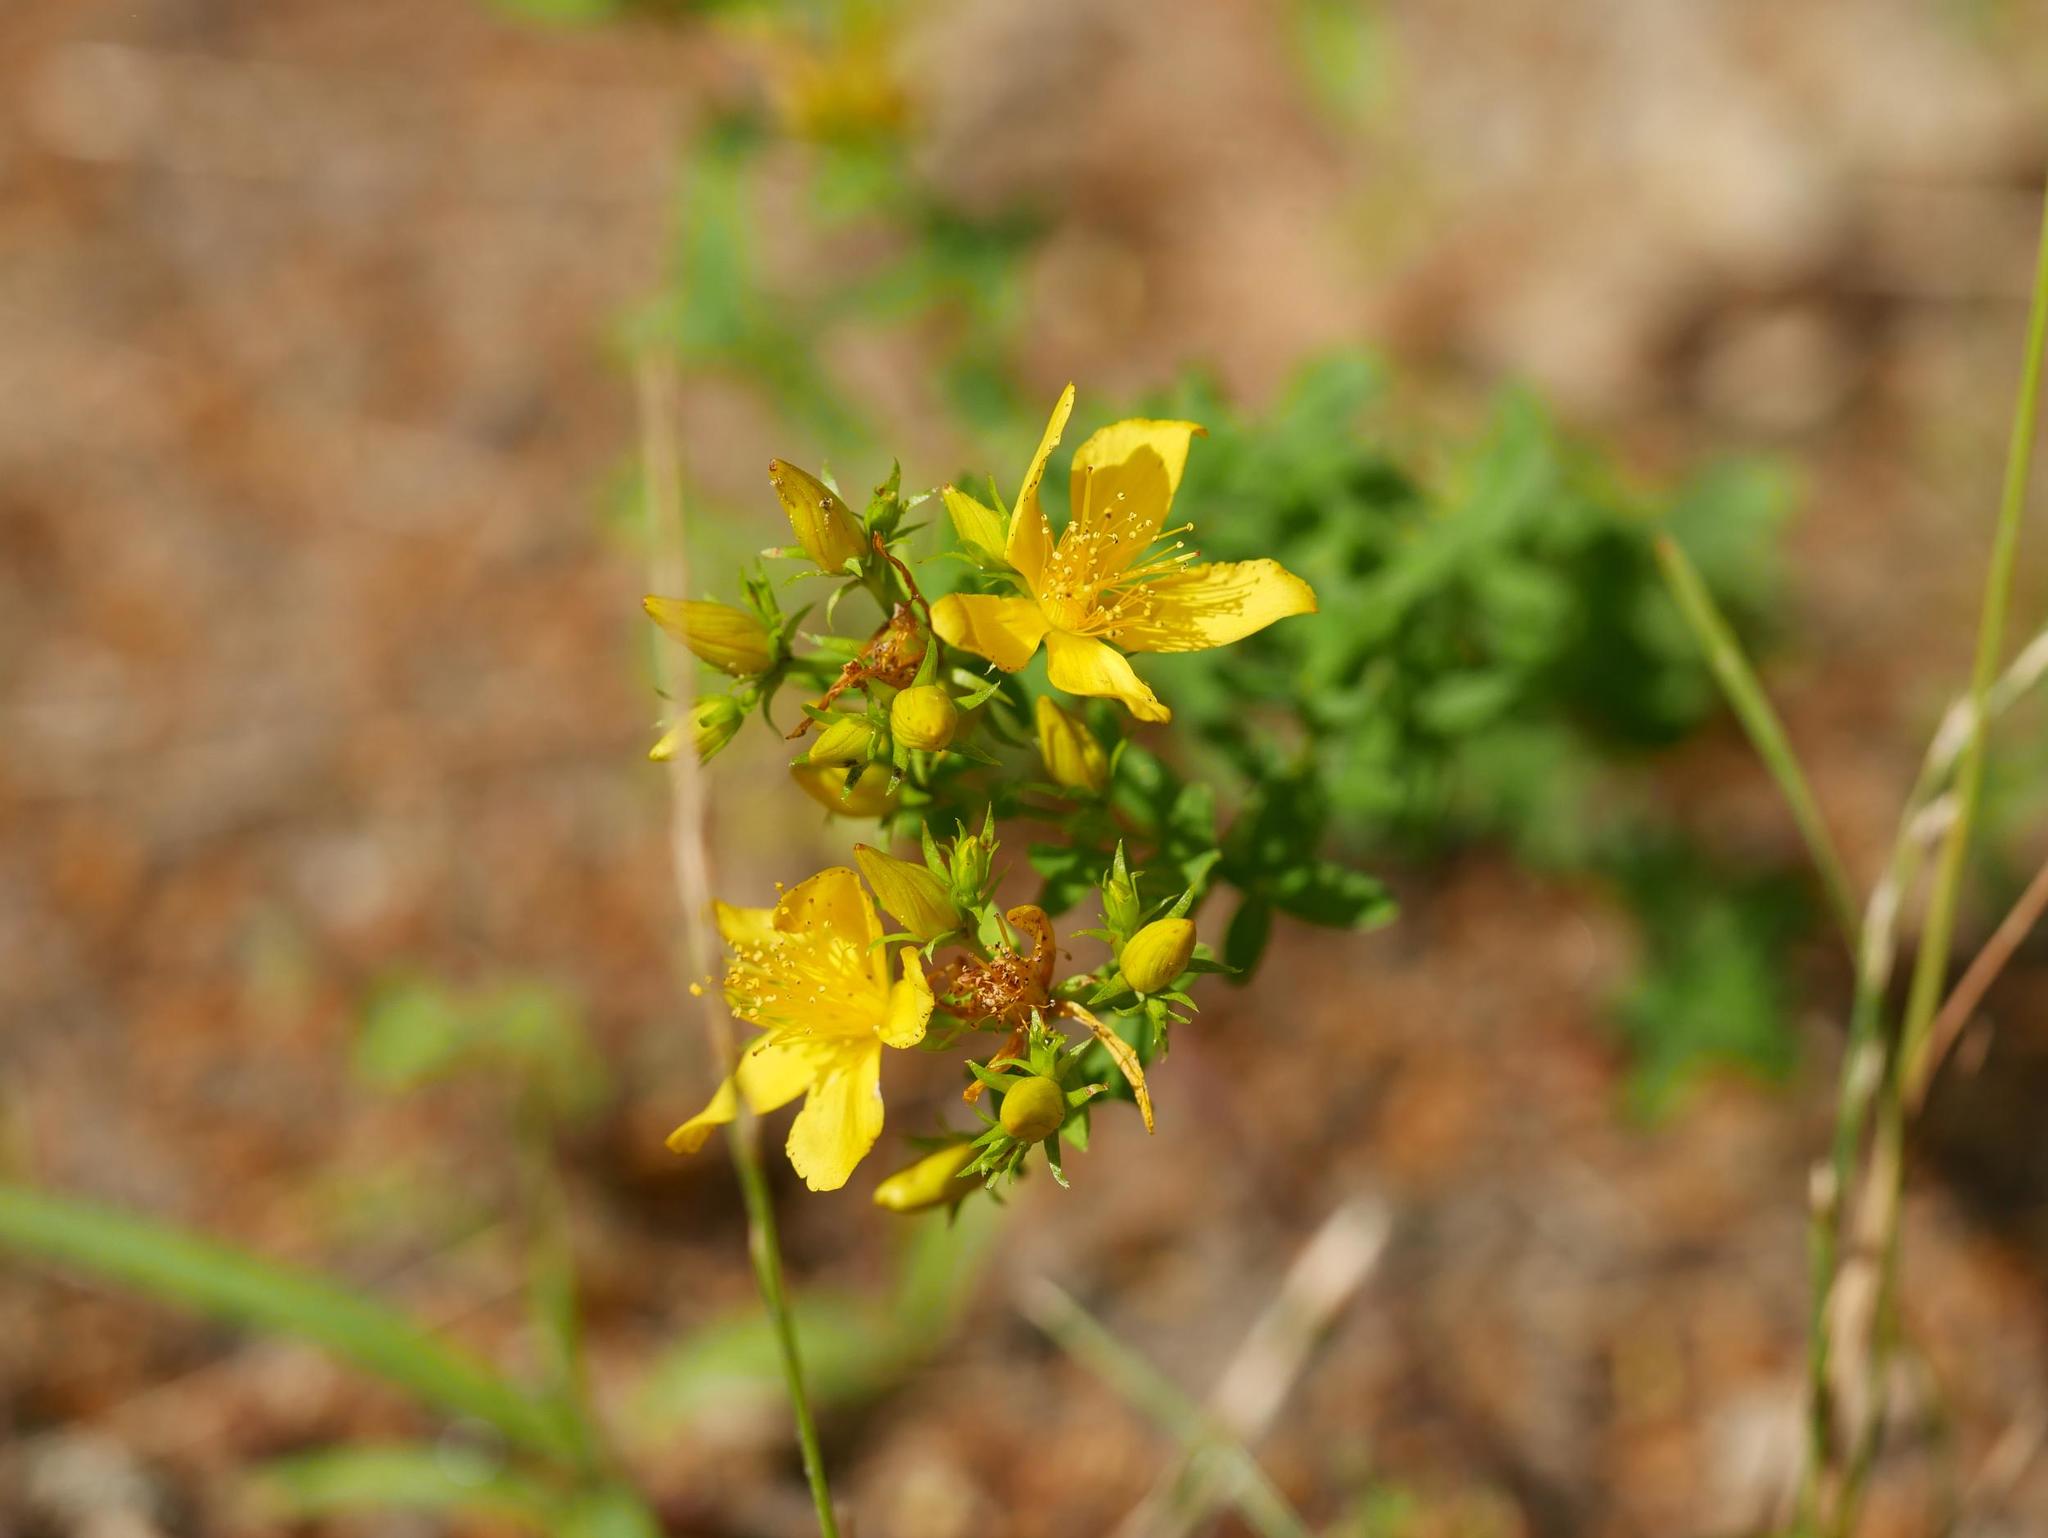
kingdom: Plantae
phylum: Tracheophyta
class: Magnoliopsida
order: Malpighiales
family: Hypericaceae
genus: Hypericum
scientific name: Hypericum perforatum
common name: Common st. johnswort
